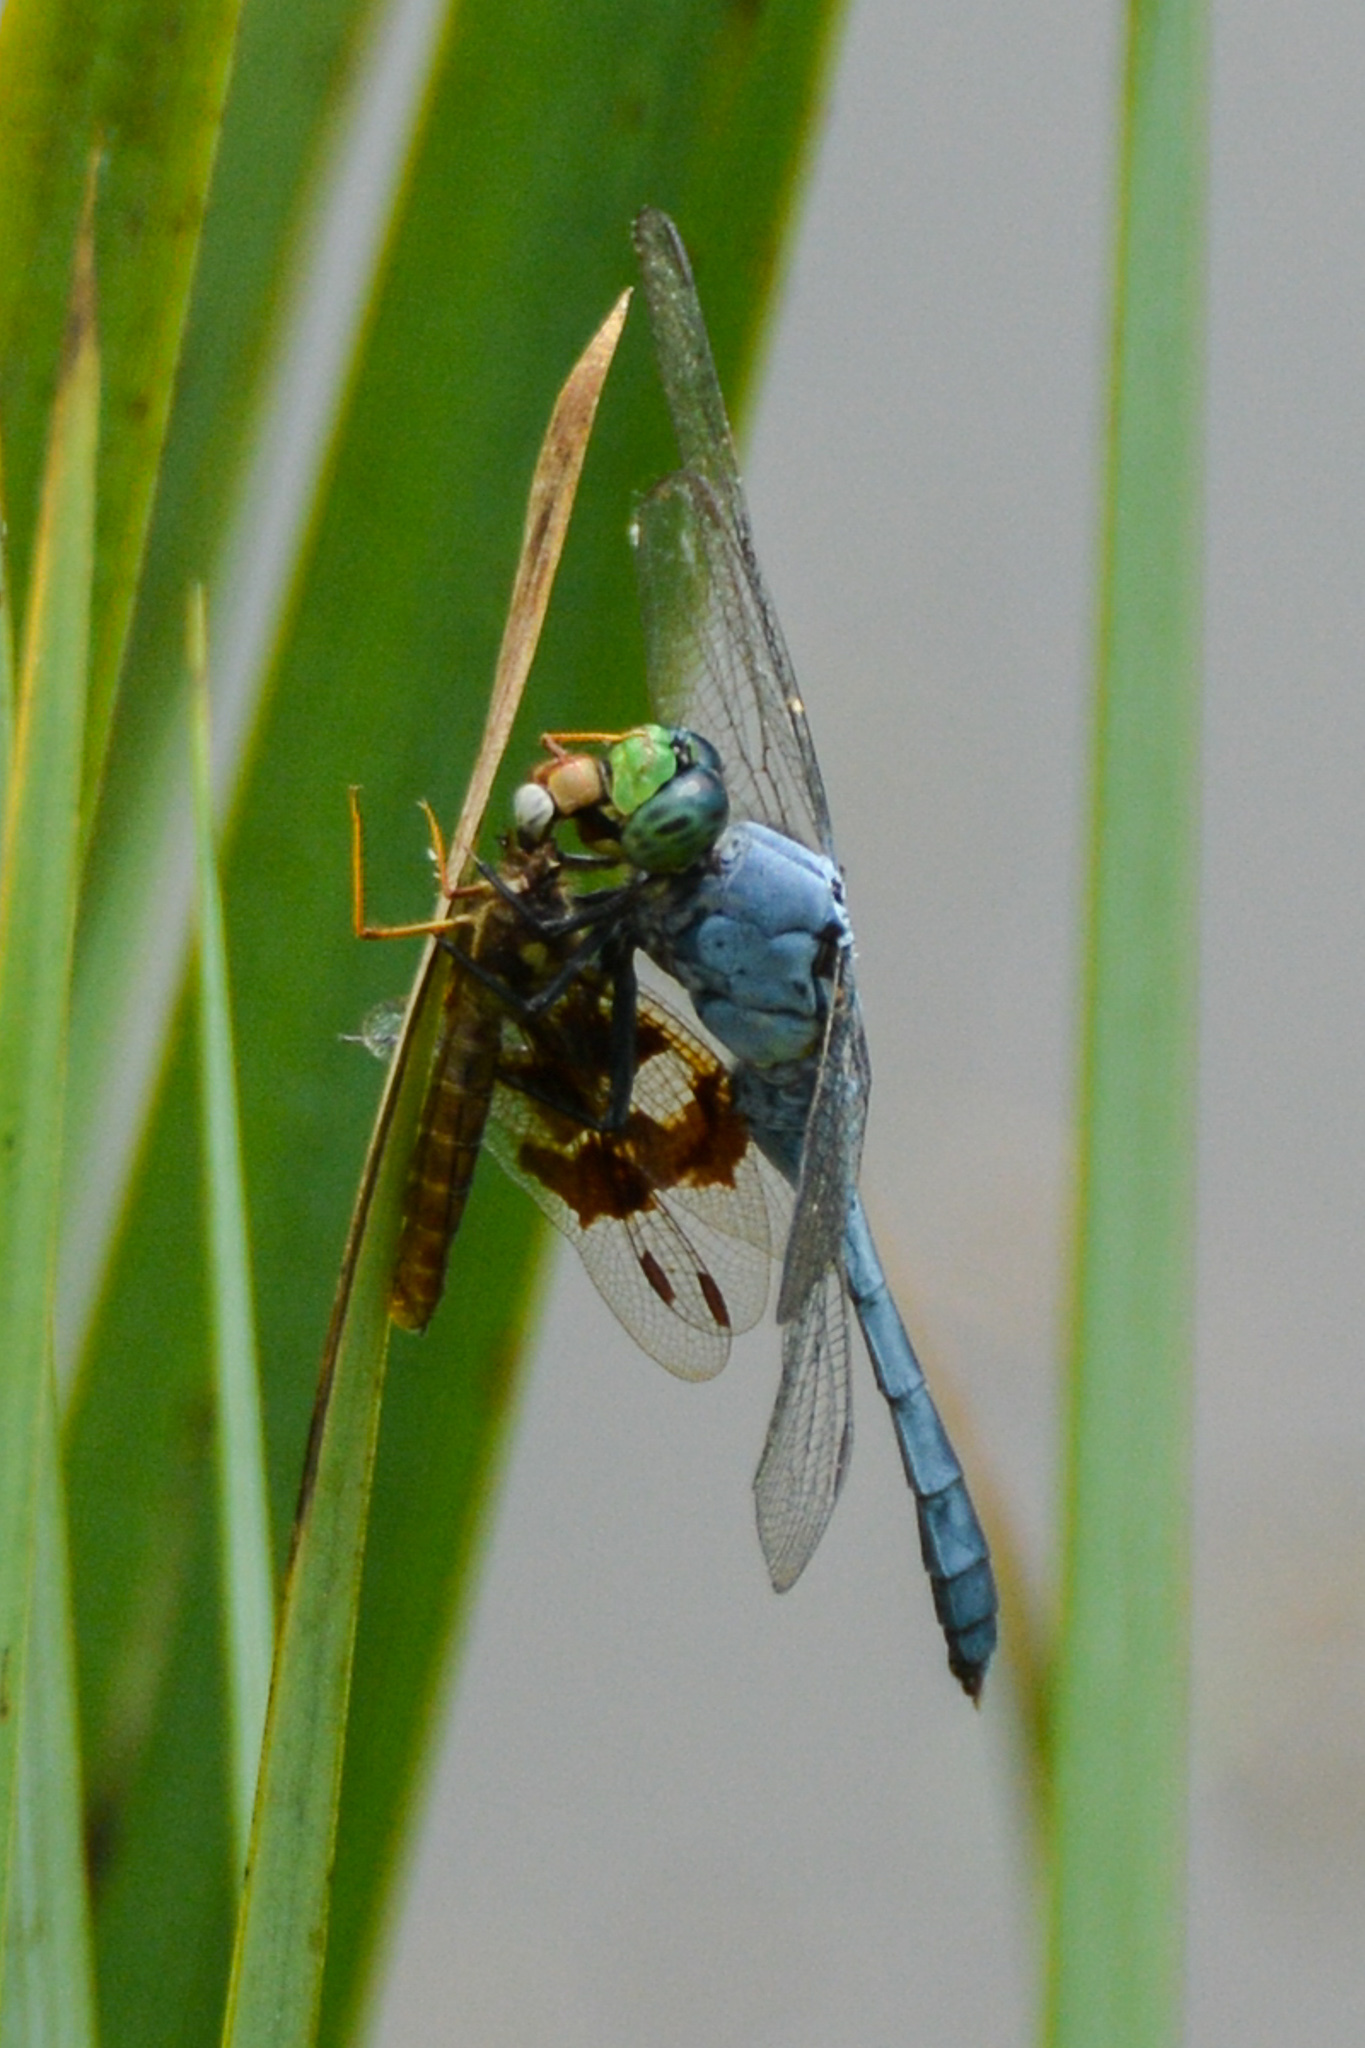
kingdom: Animalia
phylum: Arthropoda
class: Insecta
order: Odonata
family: Libellulidae
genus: Erythemis
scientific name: Erythemis simplicicollis
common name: Eastern pondhawk
